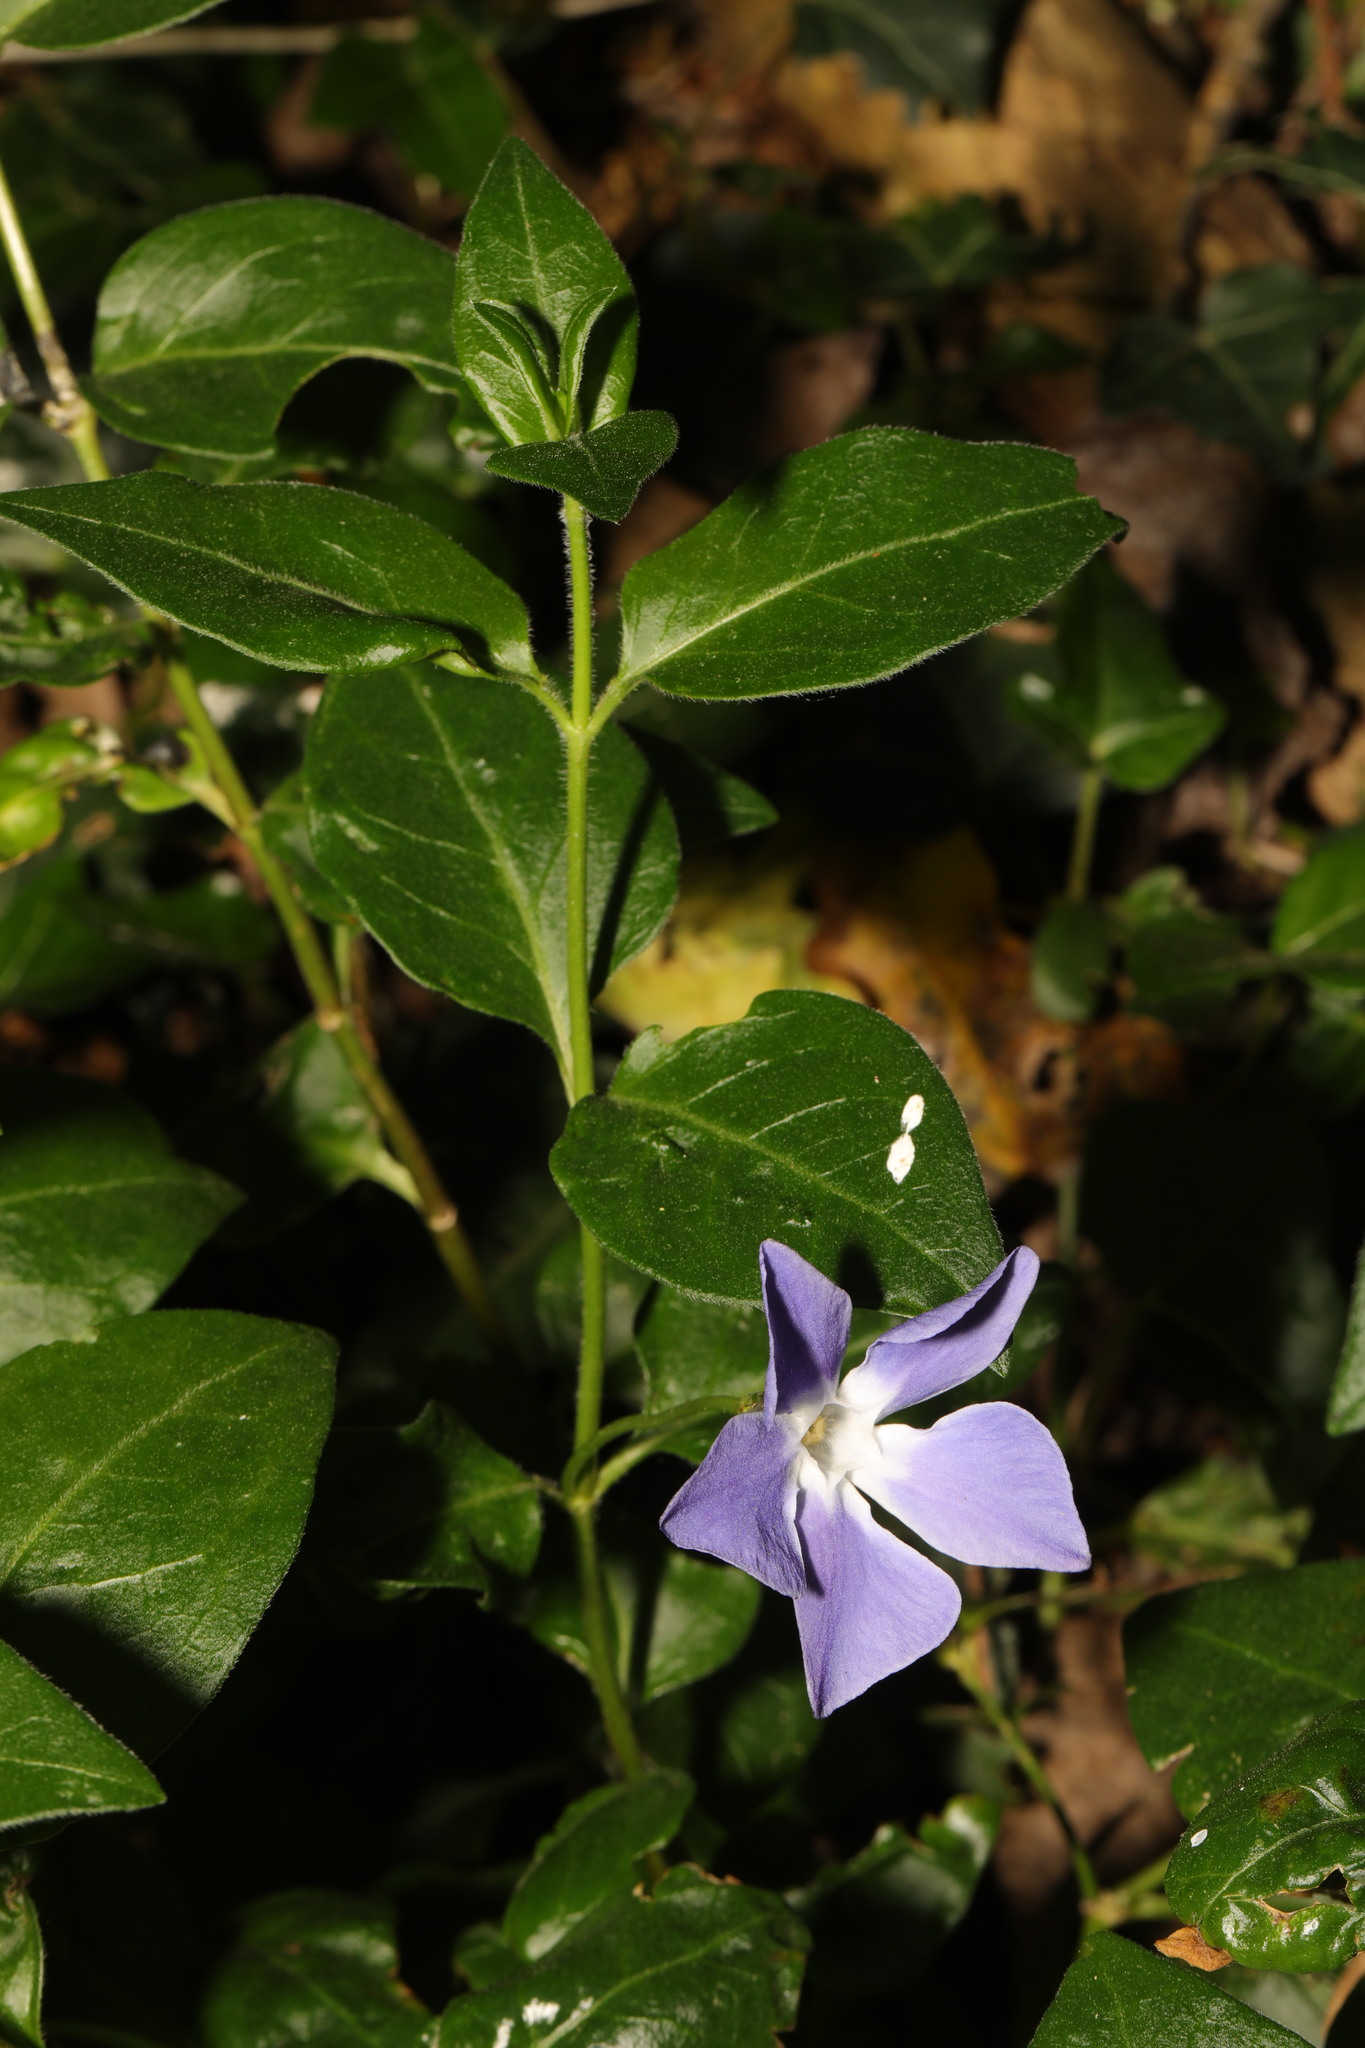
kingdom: Plantae
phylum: Tracheophyta
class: Magnoliopsida
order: Gentianales
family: Apocynaceae
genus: Vinca
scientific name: Vinca major
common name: Greater periwinkle
